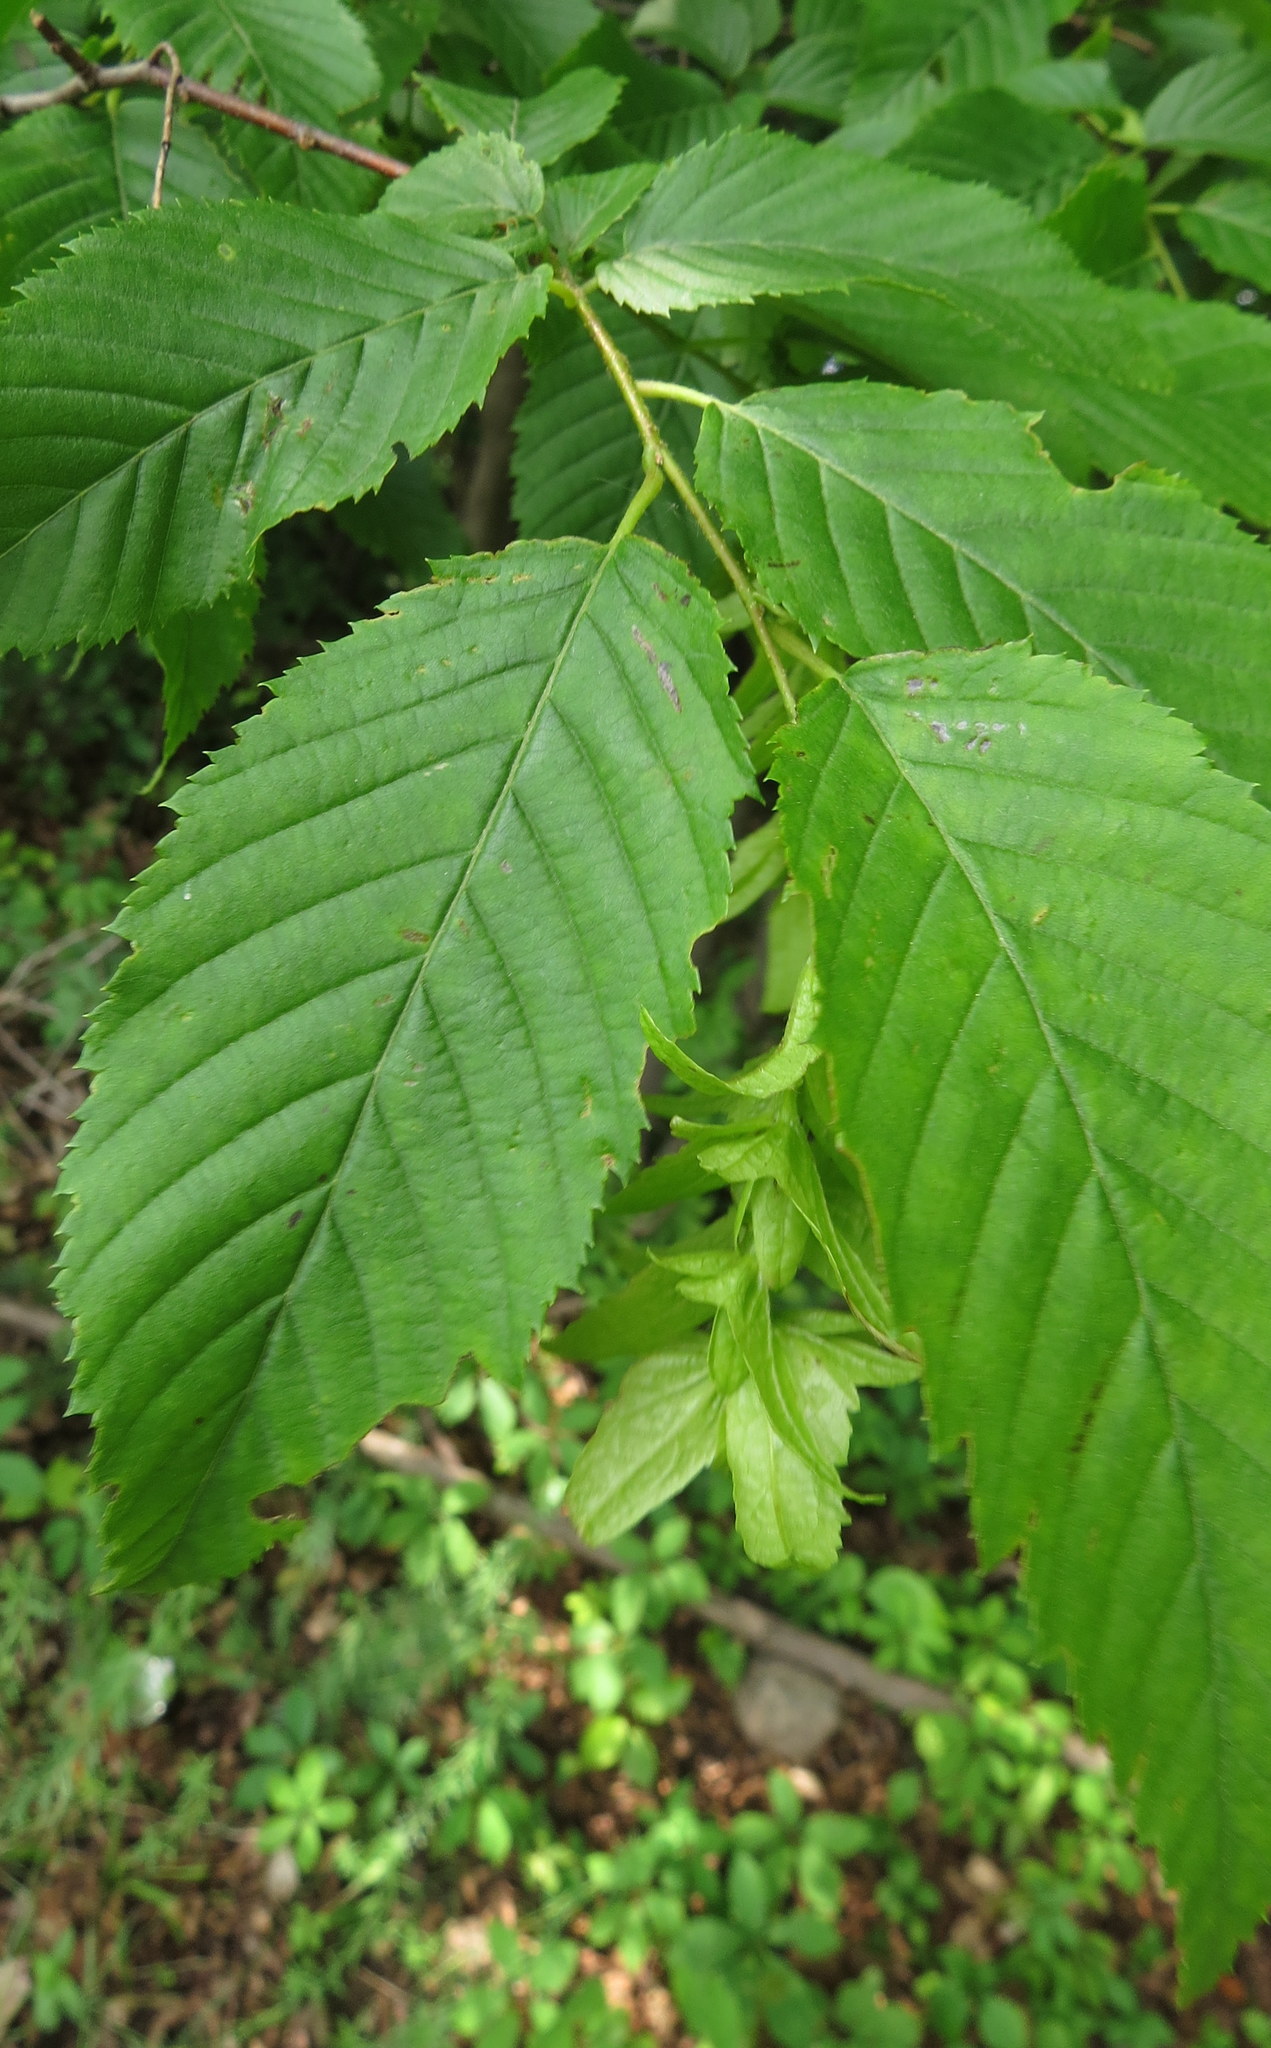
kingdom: Plantae
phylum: Tracheophyta
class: Magnoliopsida
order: Fagales
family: Betulaceae
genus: Carpinus
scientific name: Carpinus caroliniana
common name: American hornbeam
